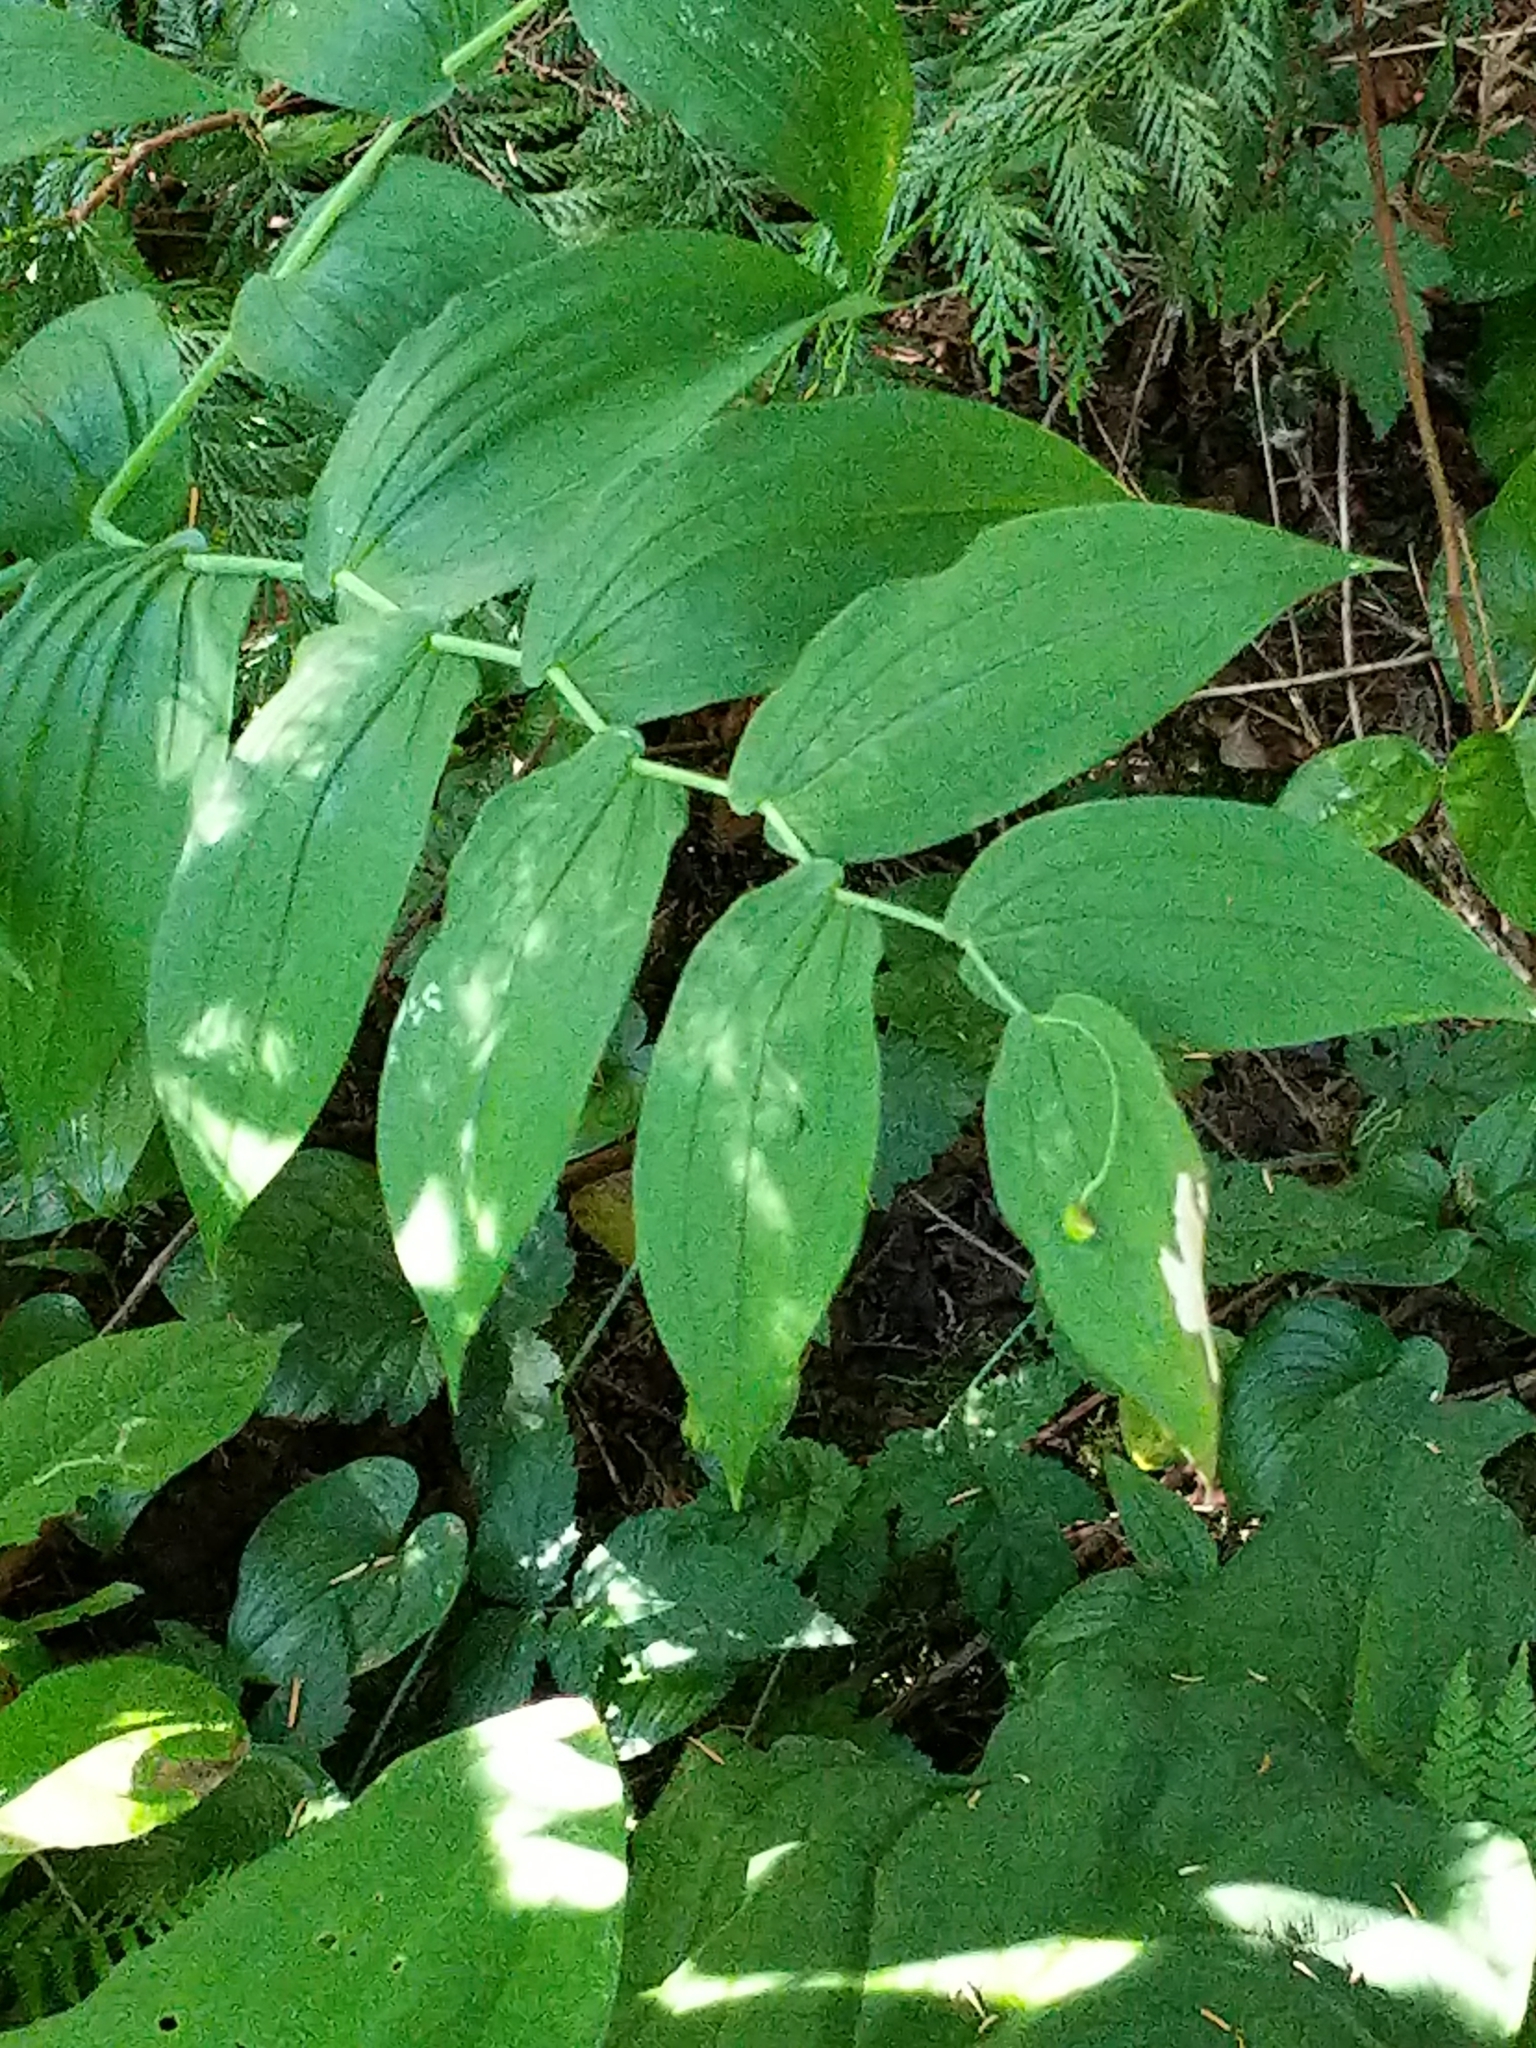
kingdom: Plantae
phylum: Tracheophyta
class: Liliopsida
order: Liliales
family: Liliaceae
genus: Streptopus
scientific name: Streptopus amplexifolius
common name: Clasp twisted stalk
